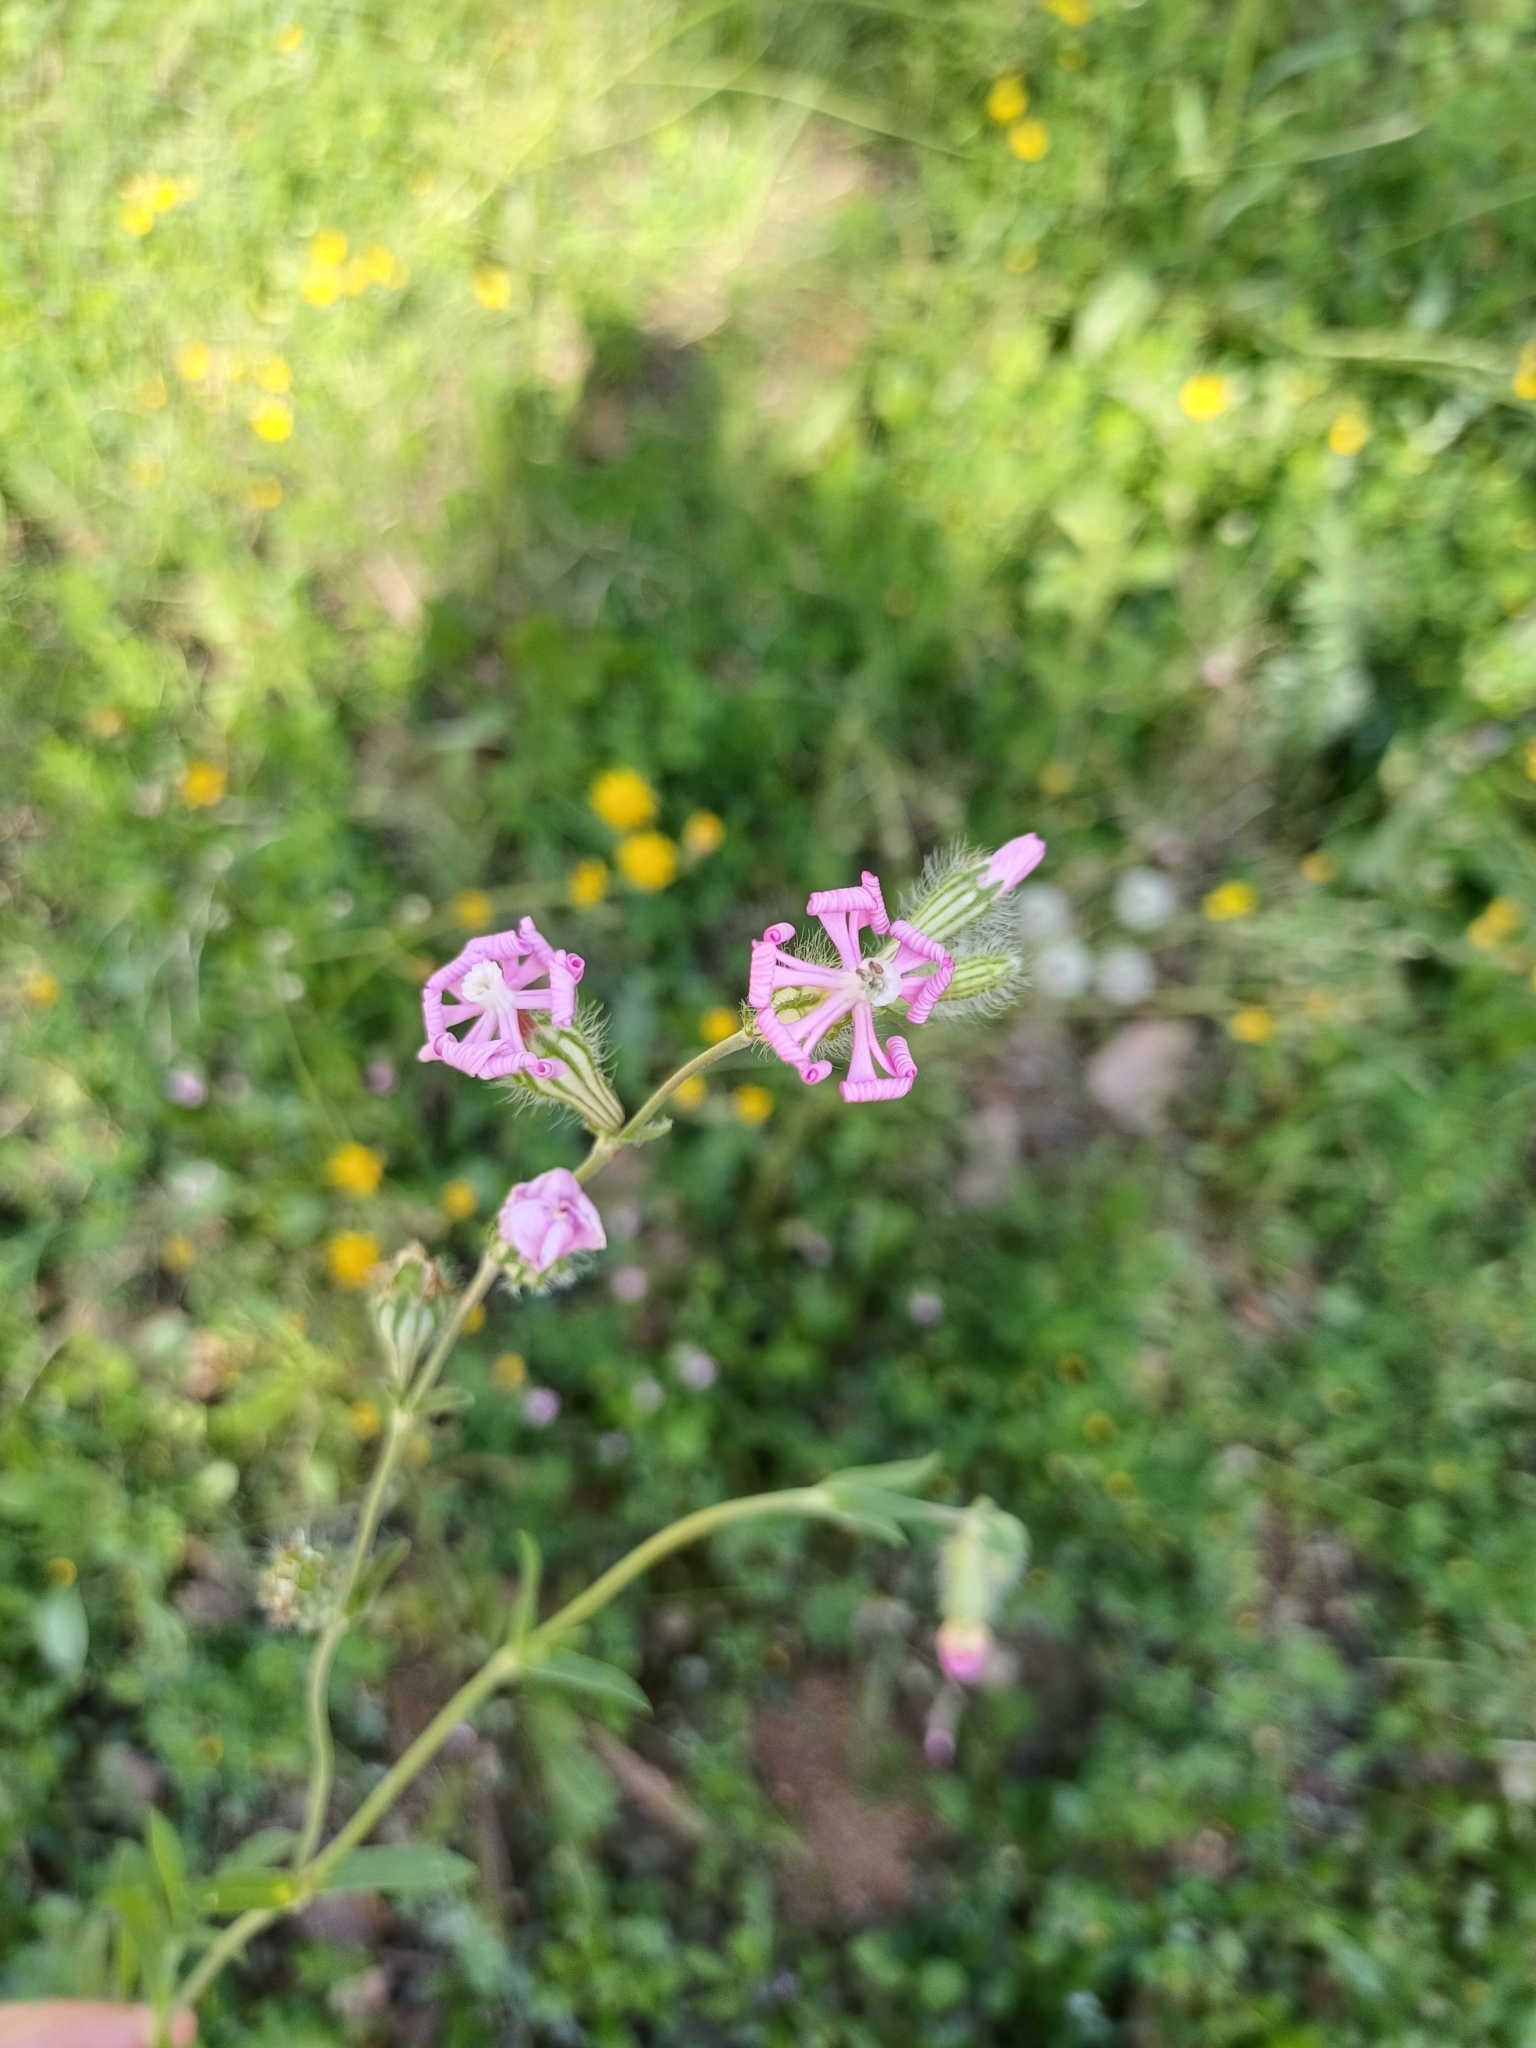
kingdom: Plantae
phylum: Tracheophyta
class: Magnoliopsida
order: Caryophyllales
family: Caryophyllaceae
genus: Silene
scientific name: Silene colorata
